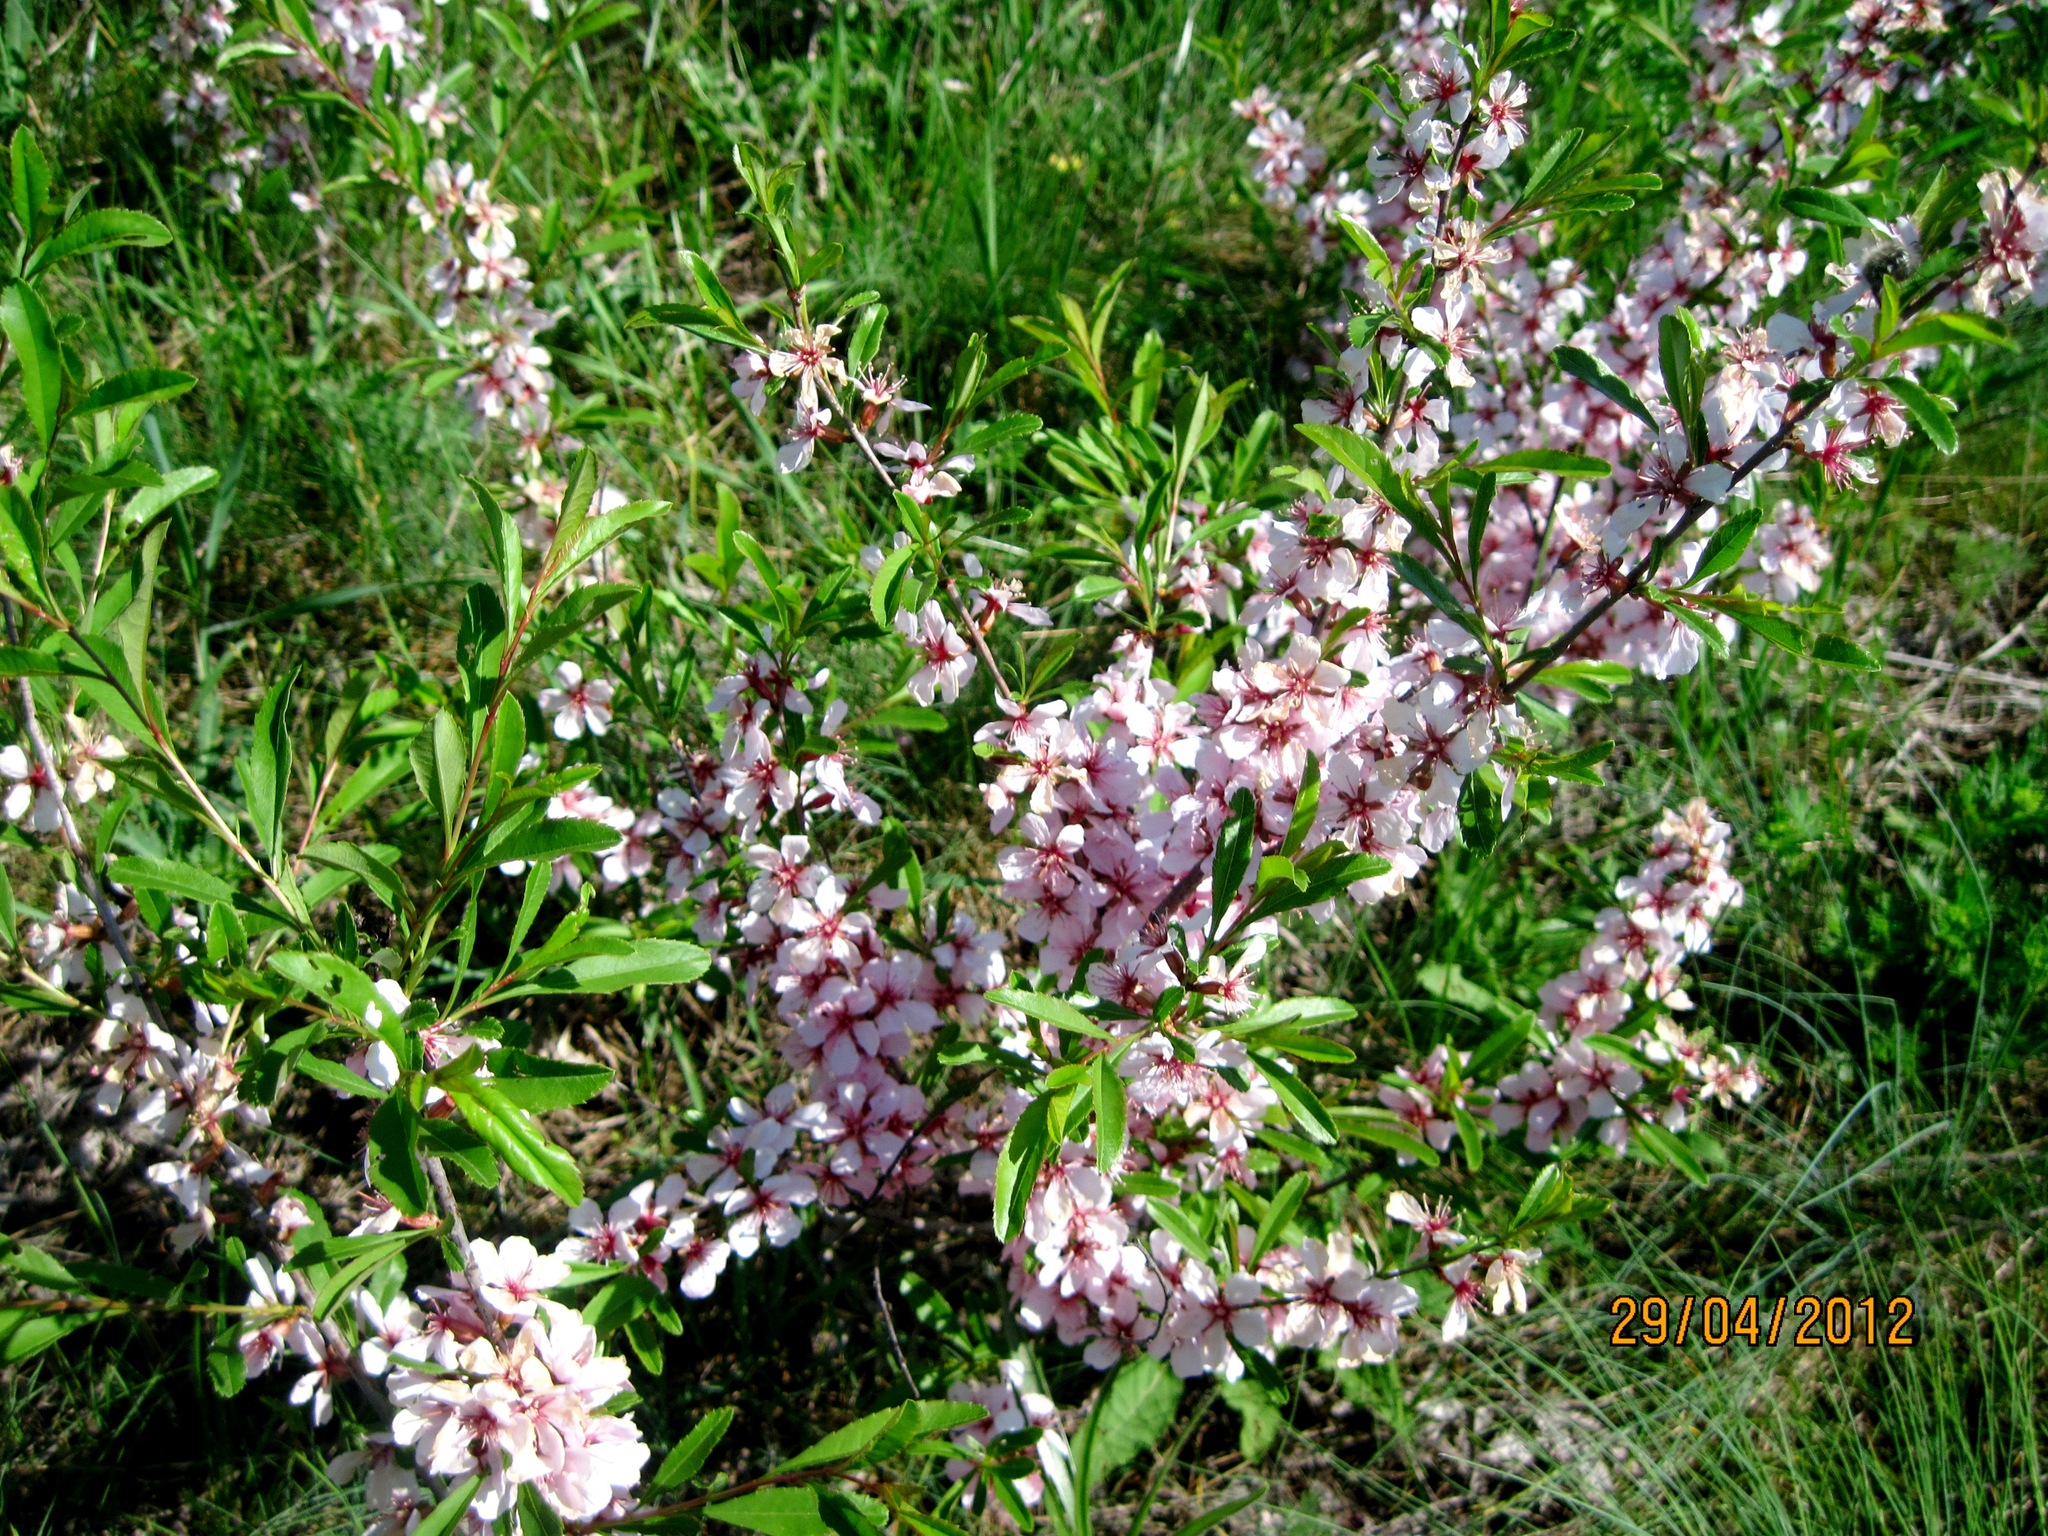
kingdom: Plantae
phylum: Tracheophyta
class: Magnoliopsida
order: Rosales
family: Rosaceae
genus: Prunus
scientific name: Prunus tenella
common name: Dwarf russian almond
